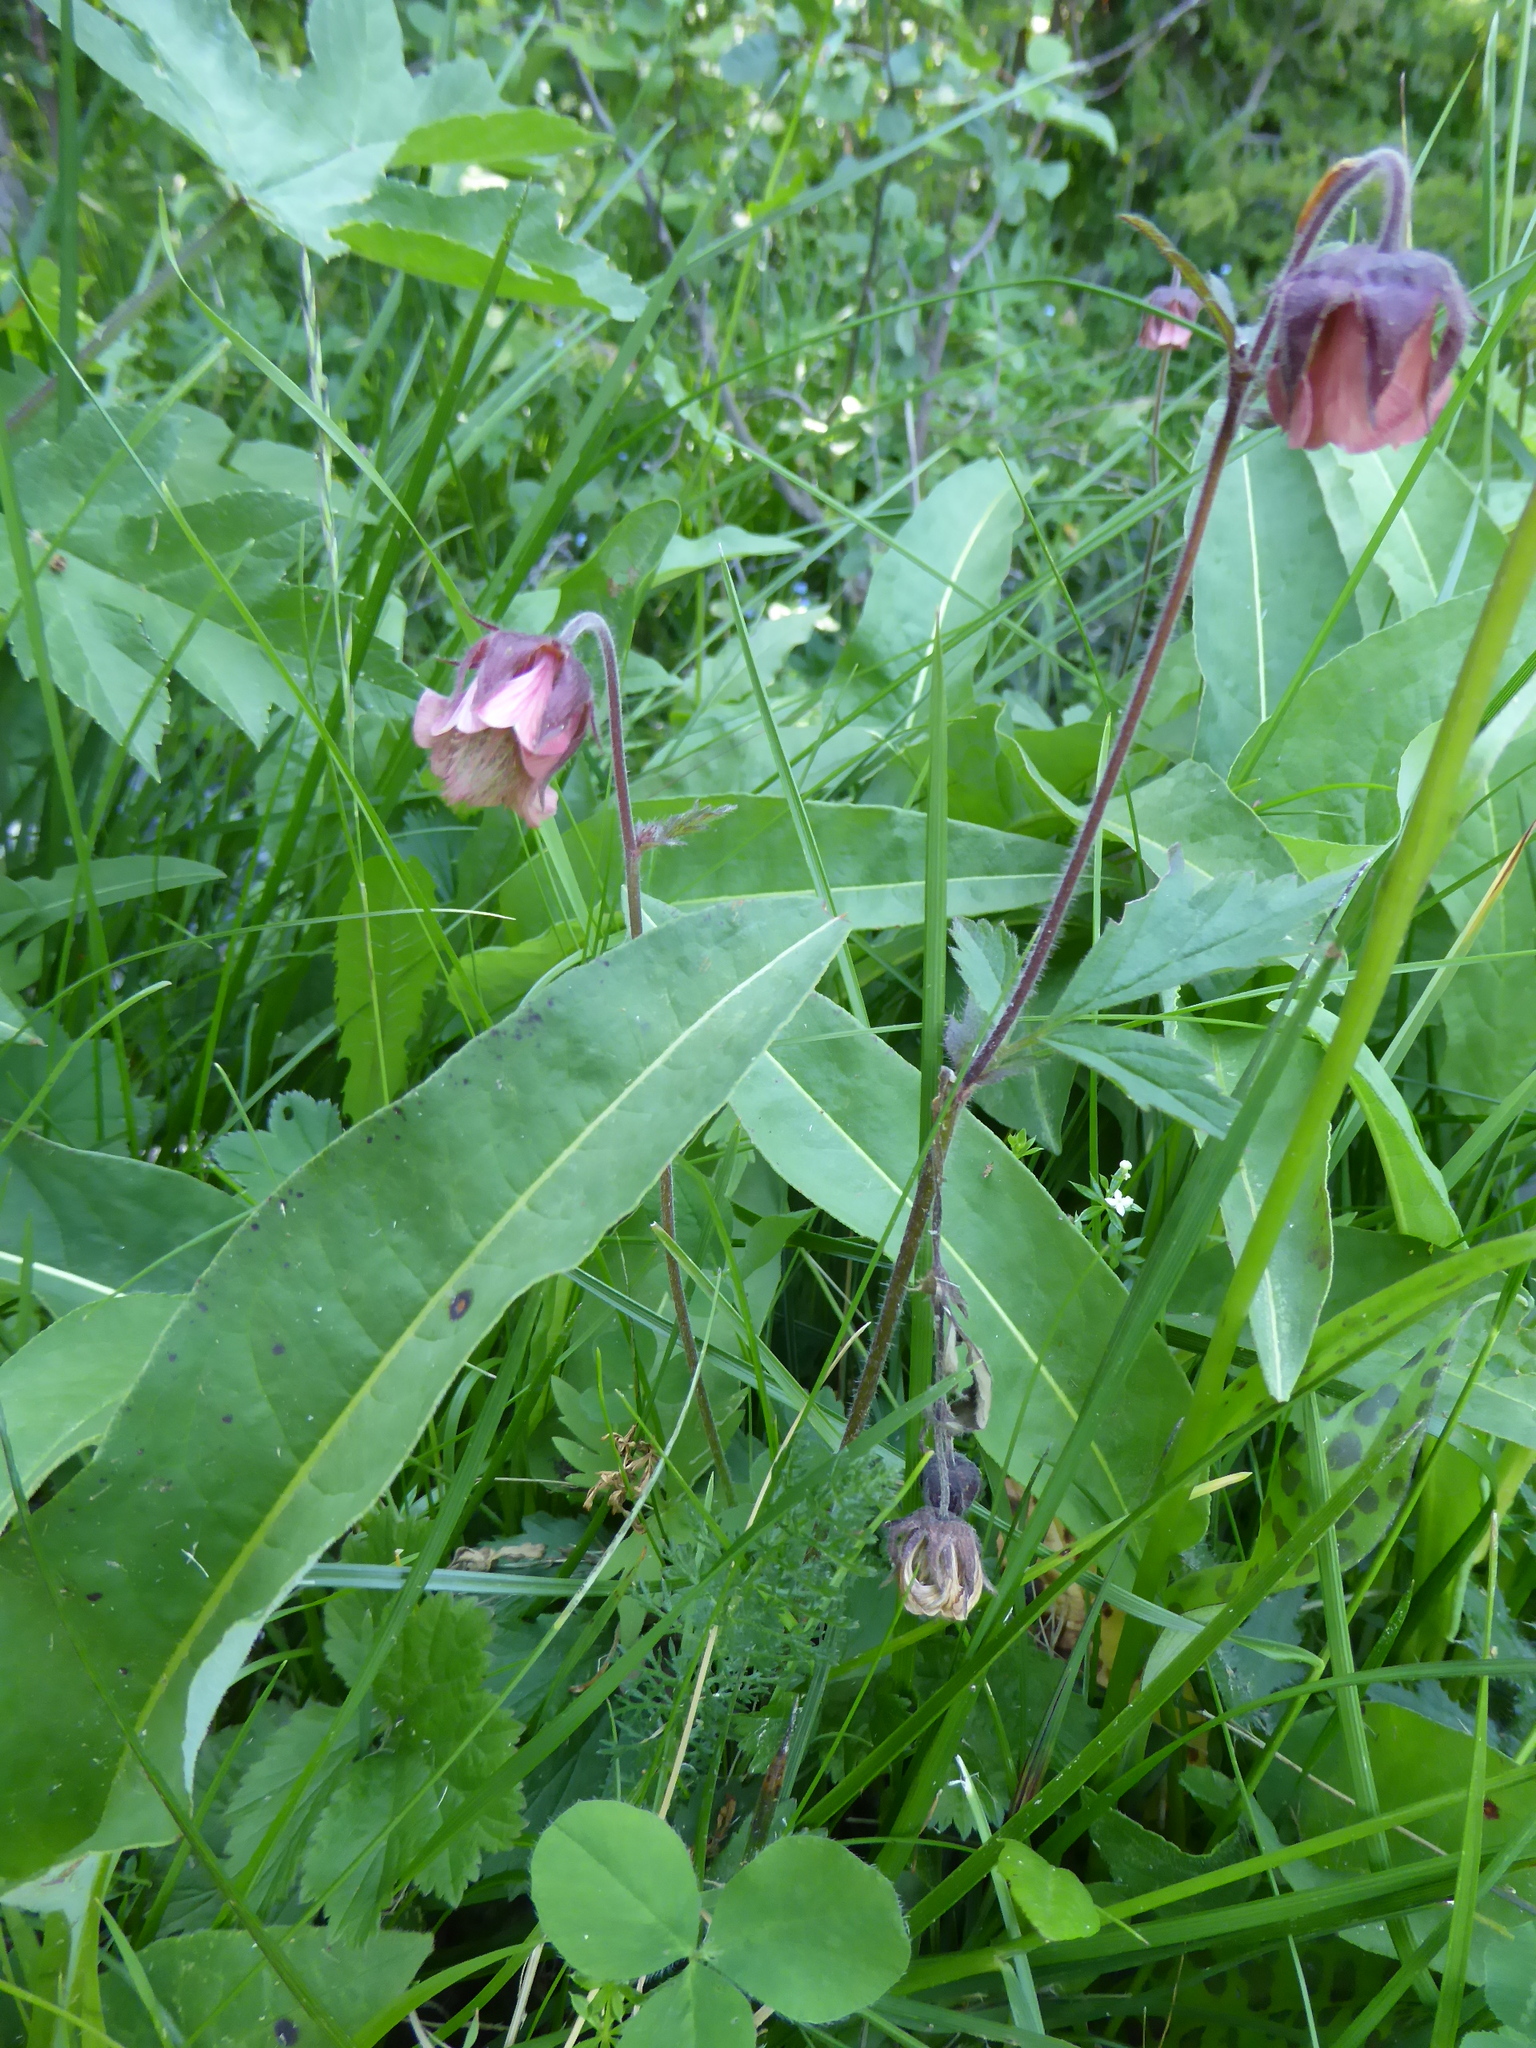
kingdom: Plantae
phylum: Tracheophyta
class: Magnoliopsida
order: Rosales
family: Rosaceae
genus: Geum
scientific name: Geum rivale
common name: Water avens
